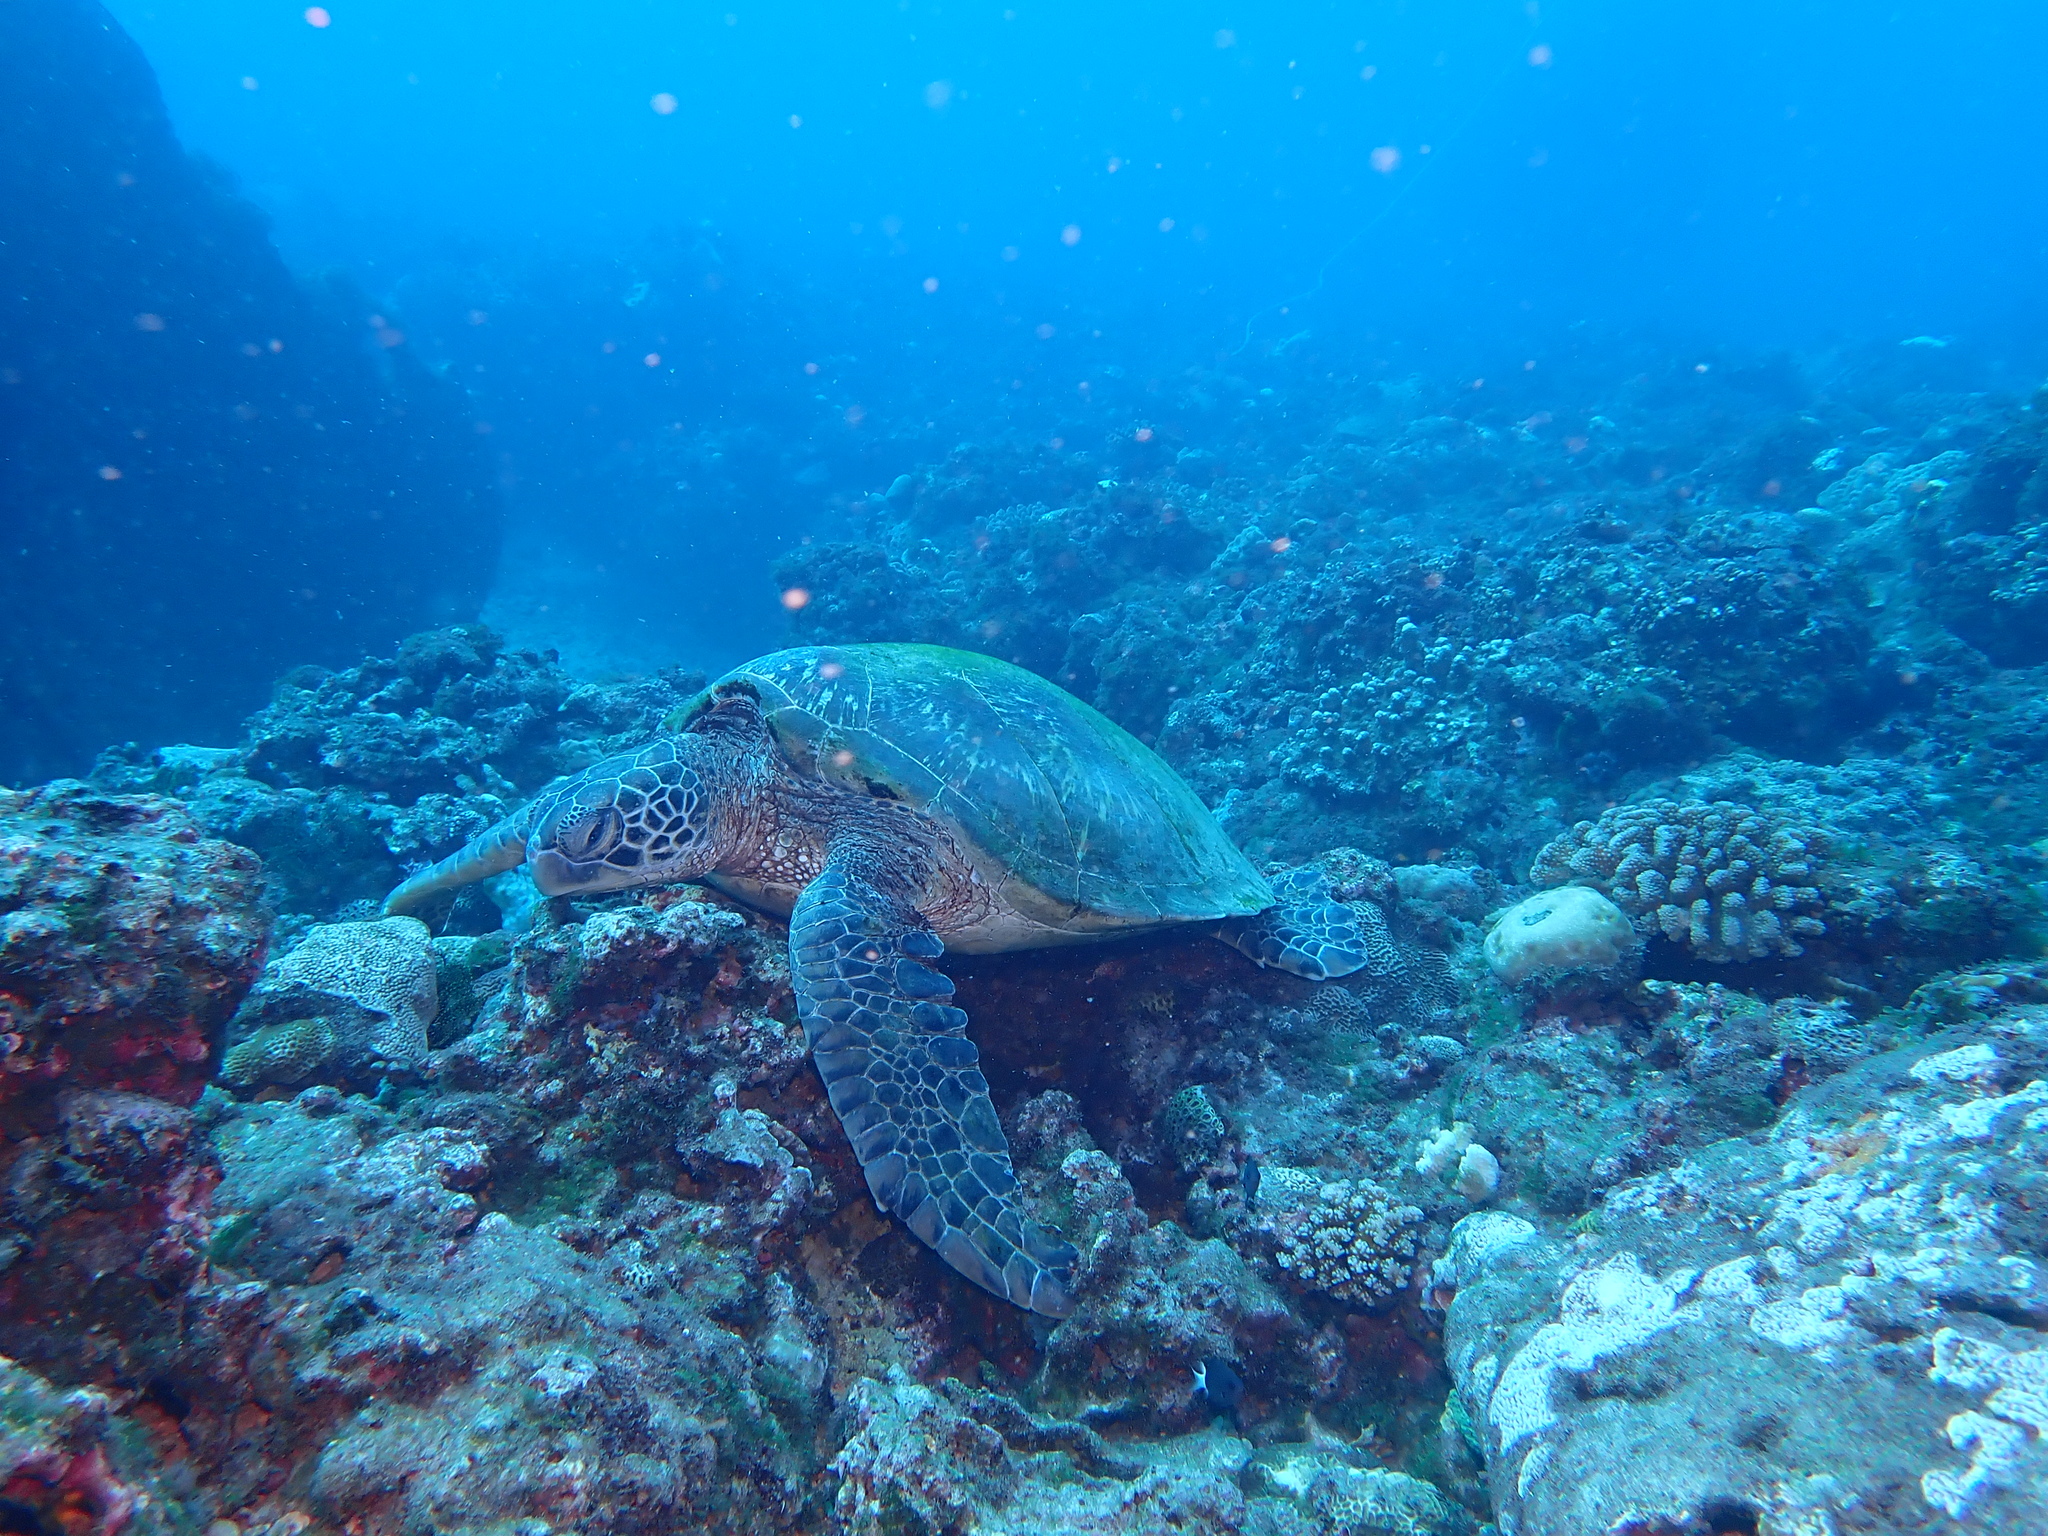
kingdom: Animalia
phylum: Chordata
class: Testudines
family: Cheloniidae
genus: Chelonia
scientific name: Chelonia mydas
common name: Green turtle
